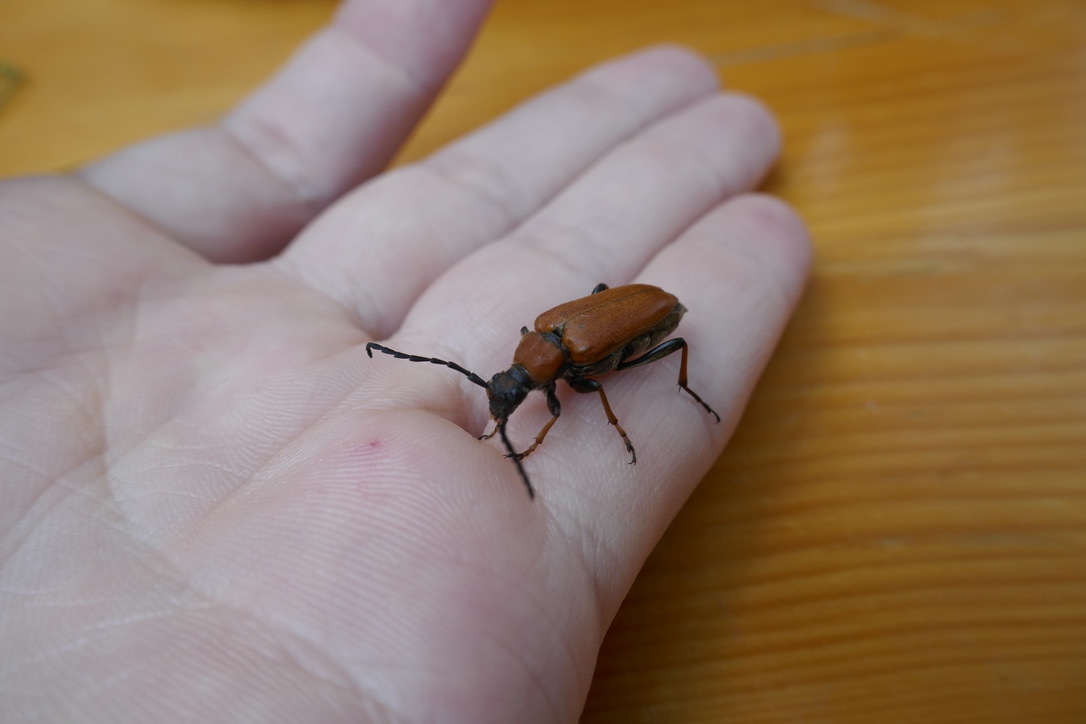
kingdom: Animalia
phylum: Arthropoda
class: Insecta
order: Coleoptera
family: Cerambycidae
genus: Stictoleptura
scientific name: Stictoleptura rubra
